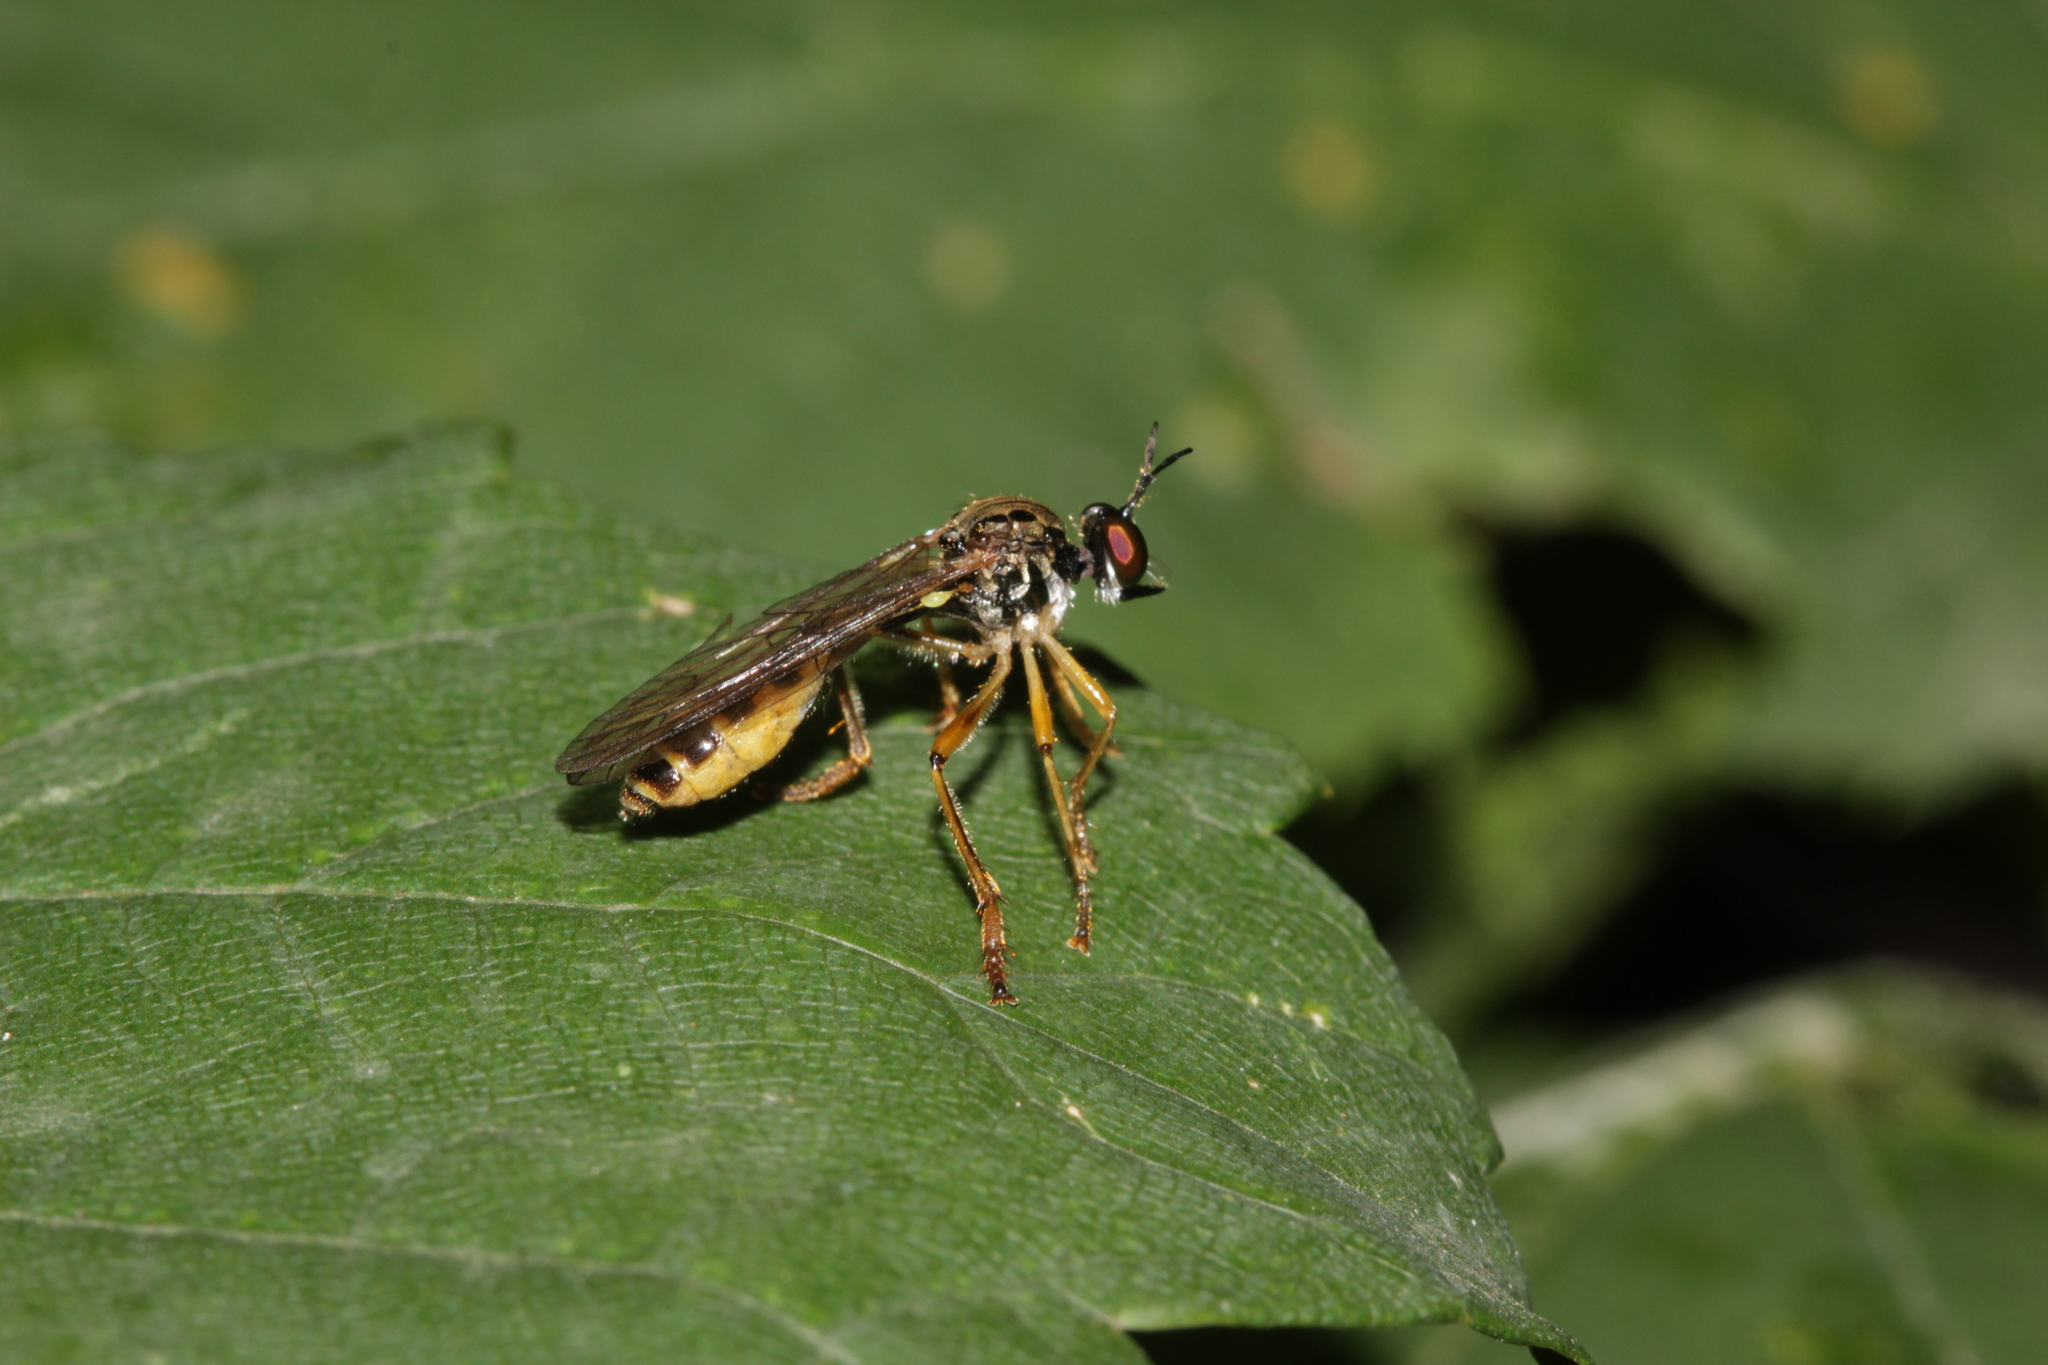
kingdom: Animalia
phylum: Arthropoda
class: Insecta
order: Diptera
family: Asilidae
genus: Dioctria
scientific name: Dioctria linearis
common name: Small yellow-legged robberfly
